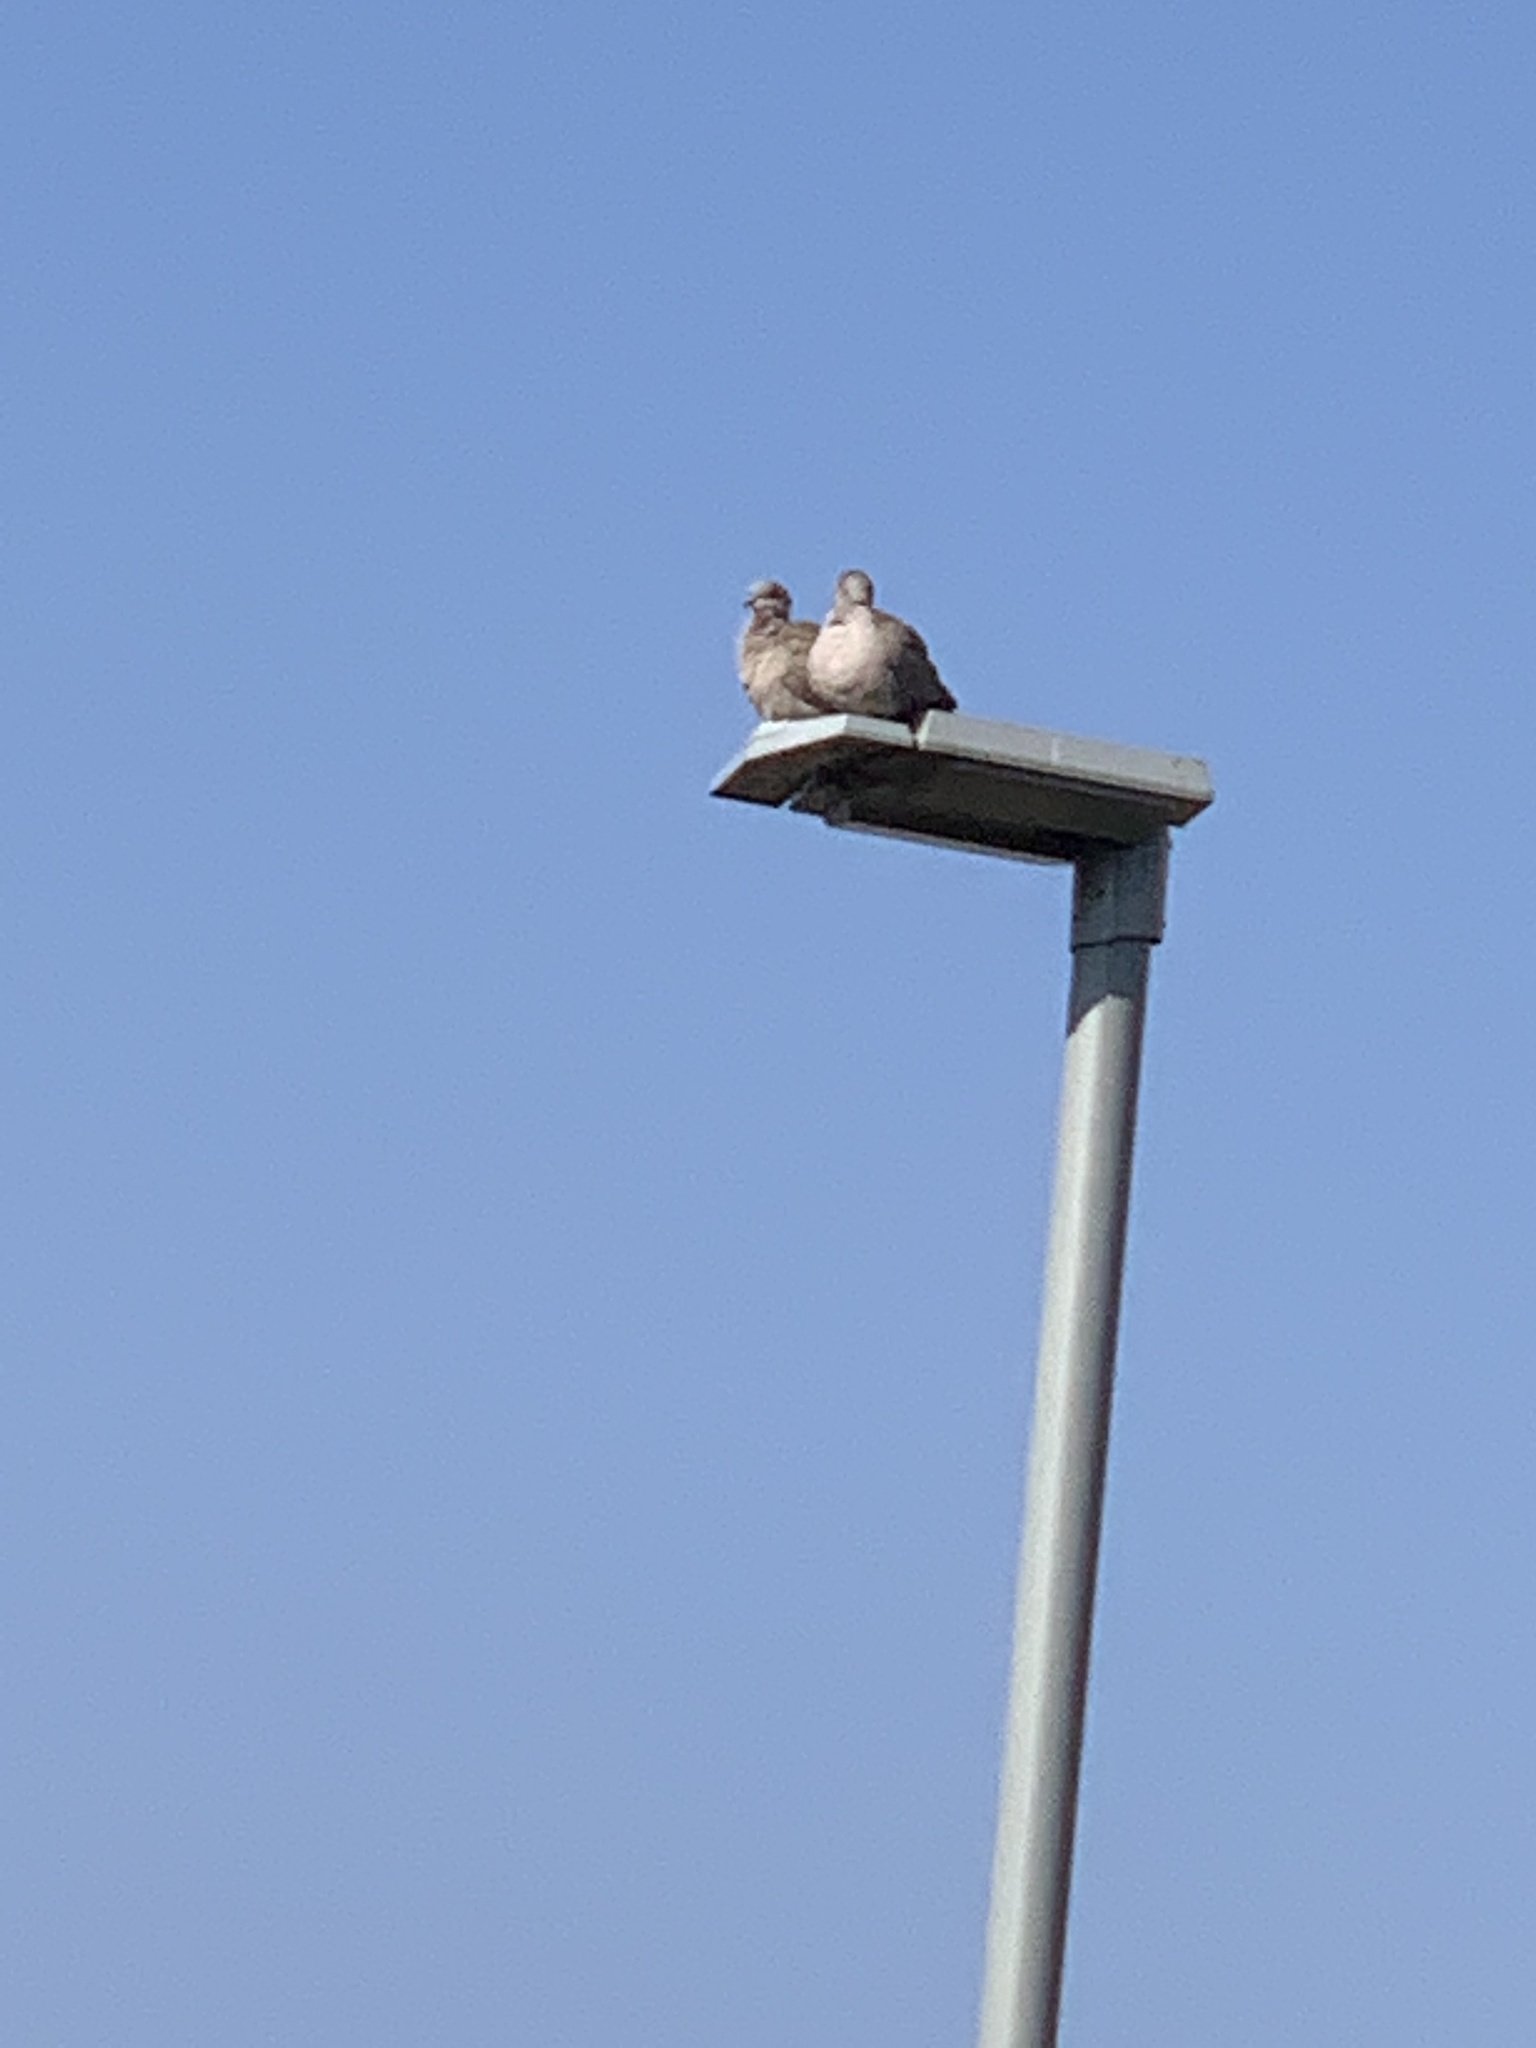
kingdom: Animalia
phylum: Chordata
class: Aves
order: Columbiformes
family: Columbidae
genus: Streptopelia
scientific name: Streptopelia decaocto
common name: Eurasian collared dove
